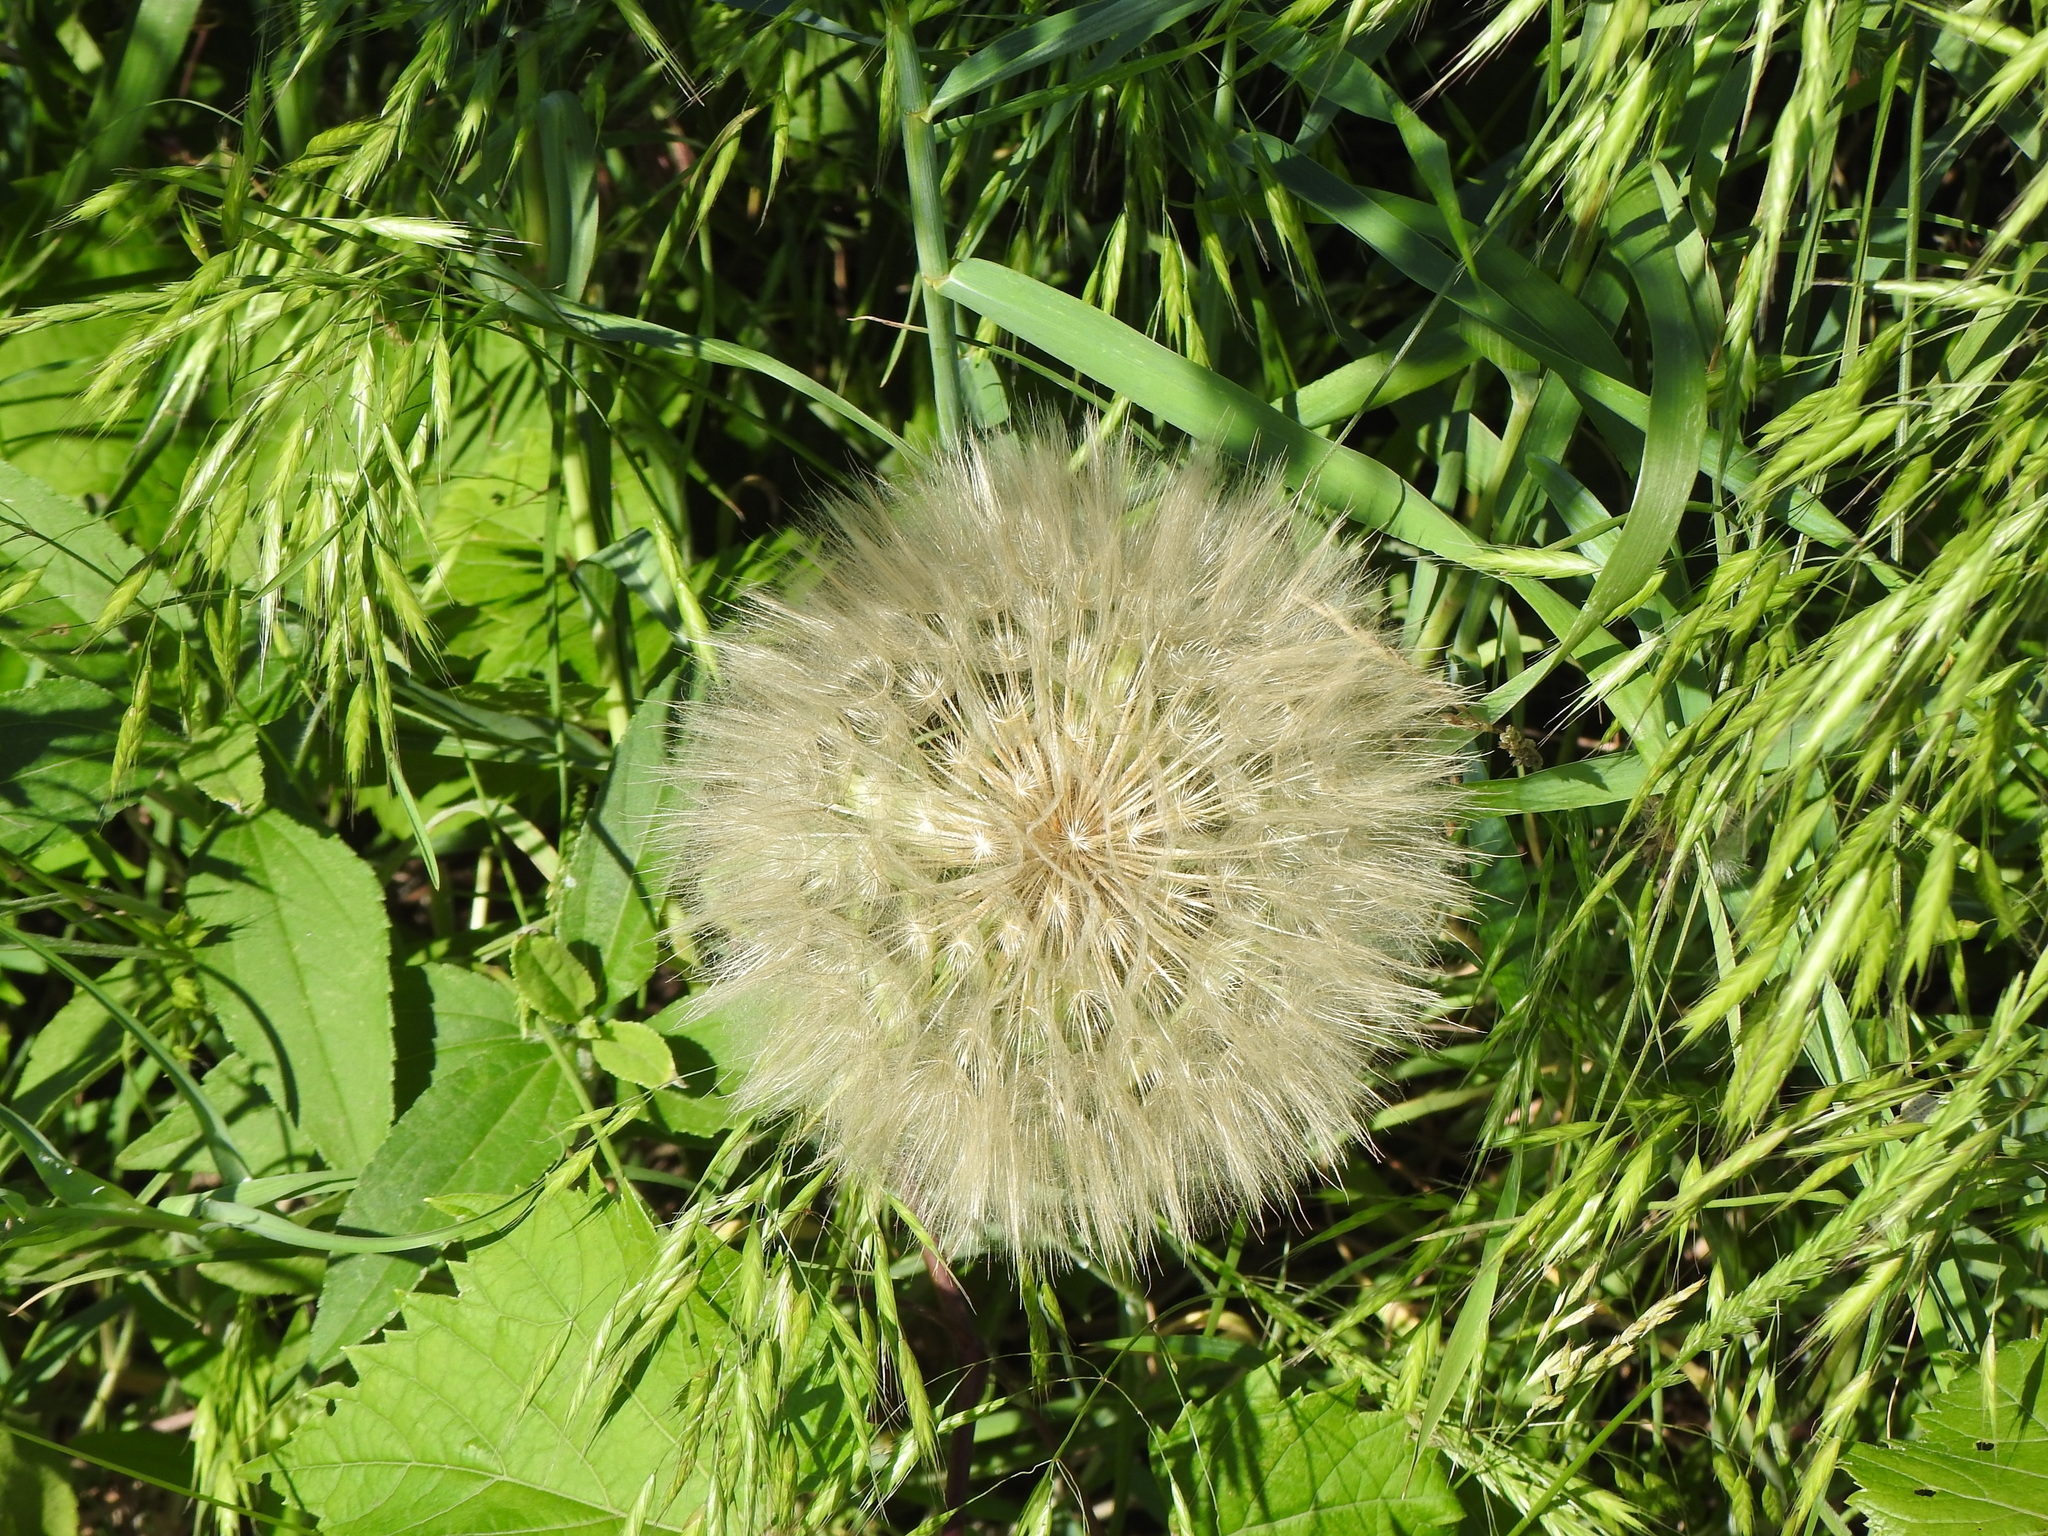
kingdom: Plantae
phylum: Tracheophyta
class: Magnoliopsida
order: Asterales
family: Asteraceae
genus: Tragopogon
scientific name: Tragopogon dubius
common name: Yellow salsify
